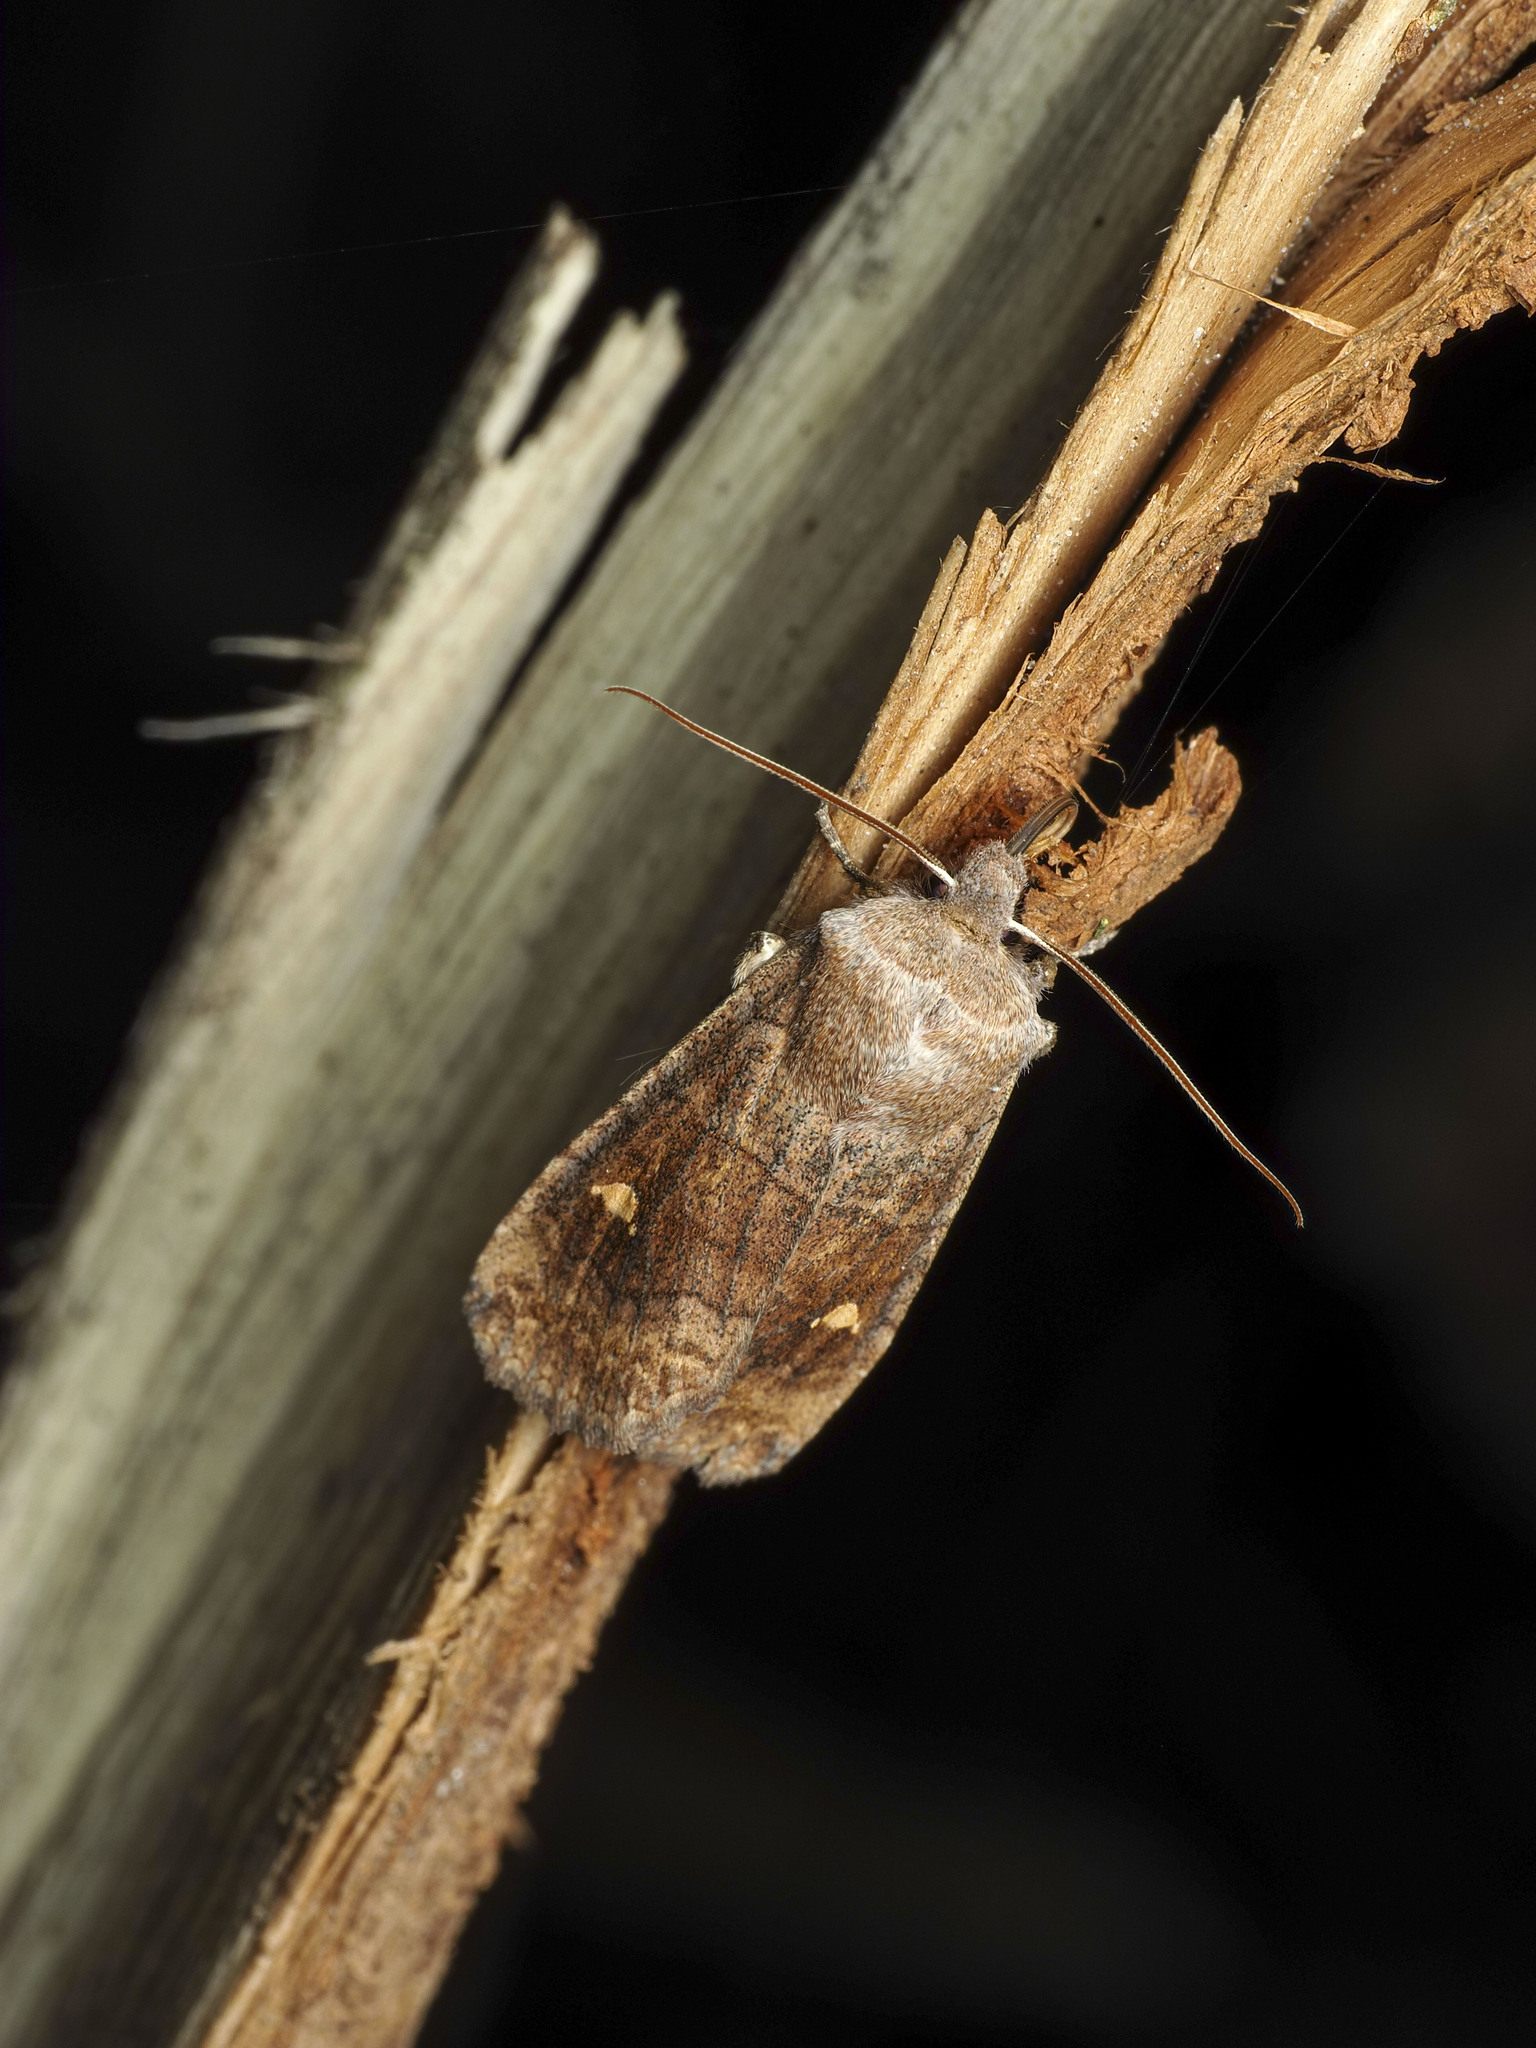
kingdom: Animalia
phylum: Arthropoda
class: Insecta
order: Lepidoptera
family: Noctuidae
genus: Eupsilia
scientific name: Eupsilia transversa
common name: Satellite
